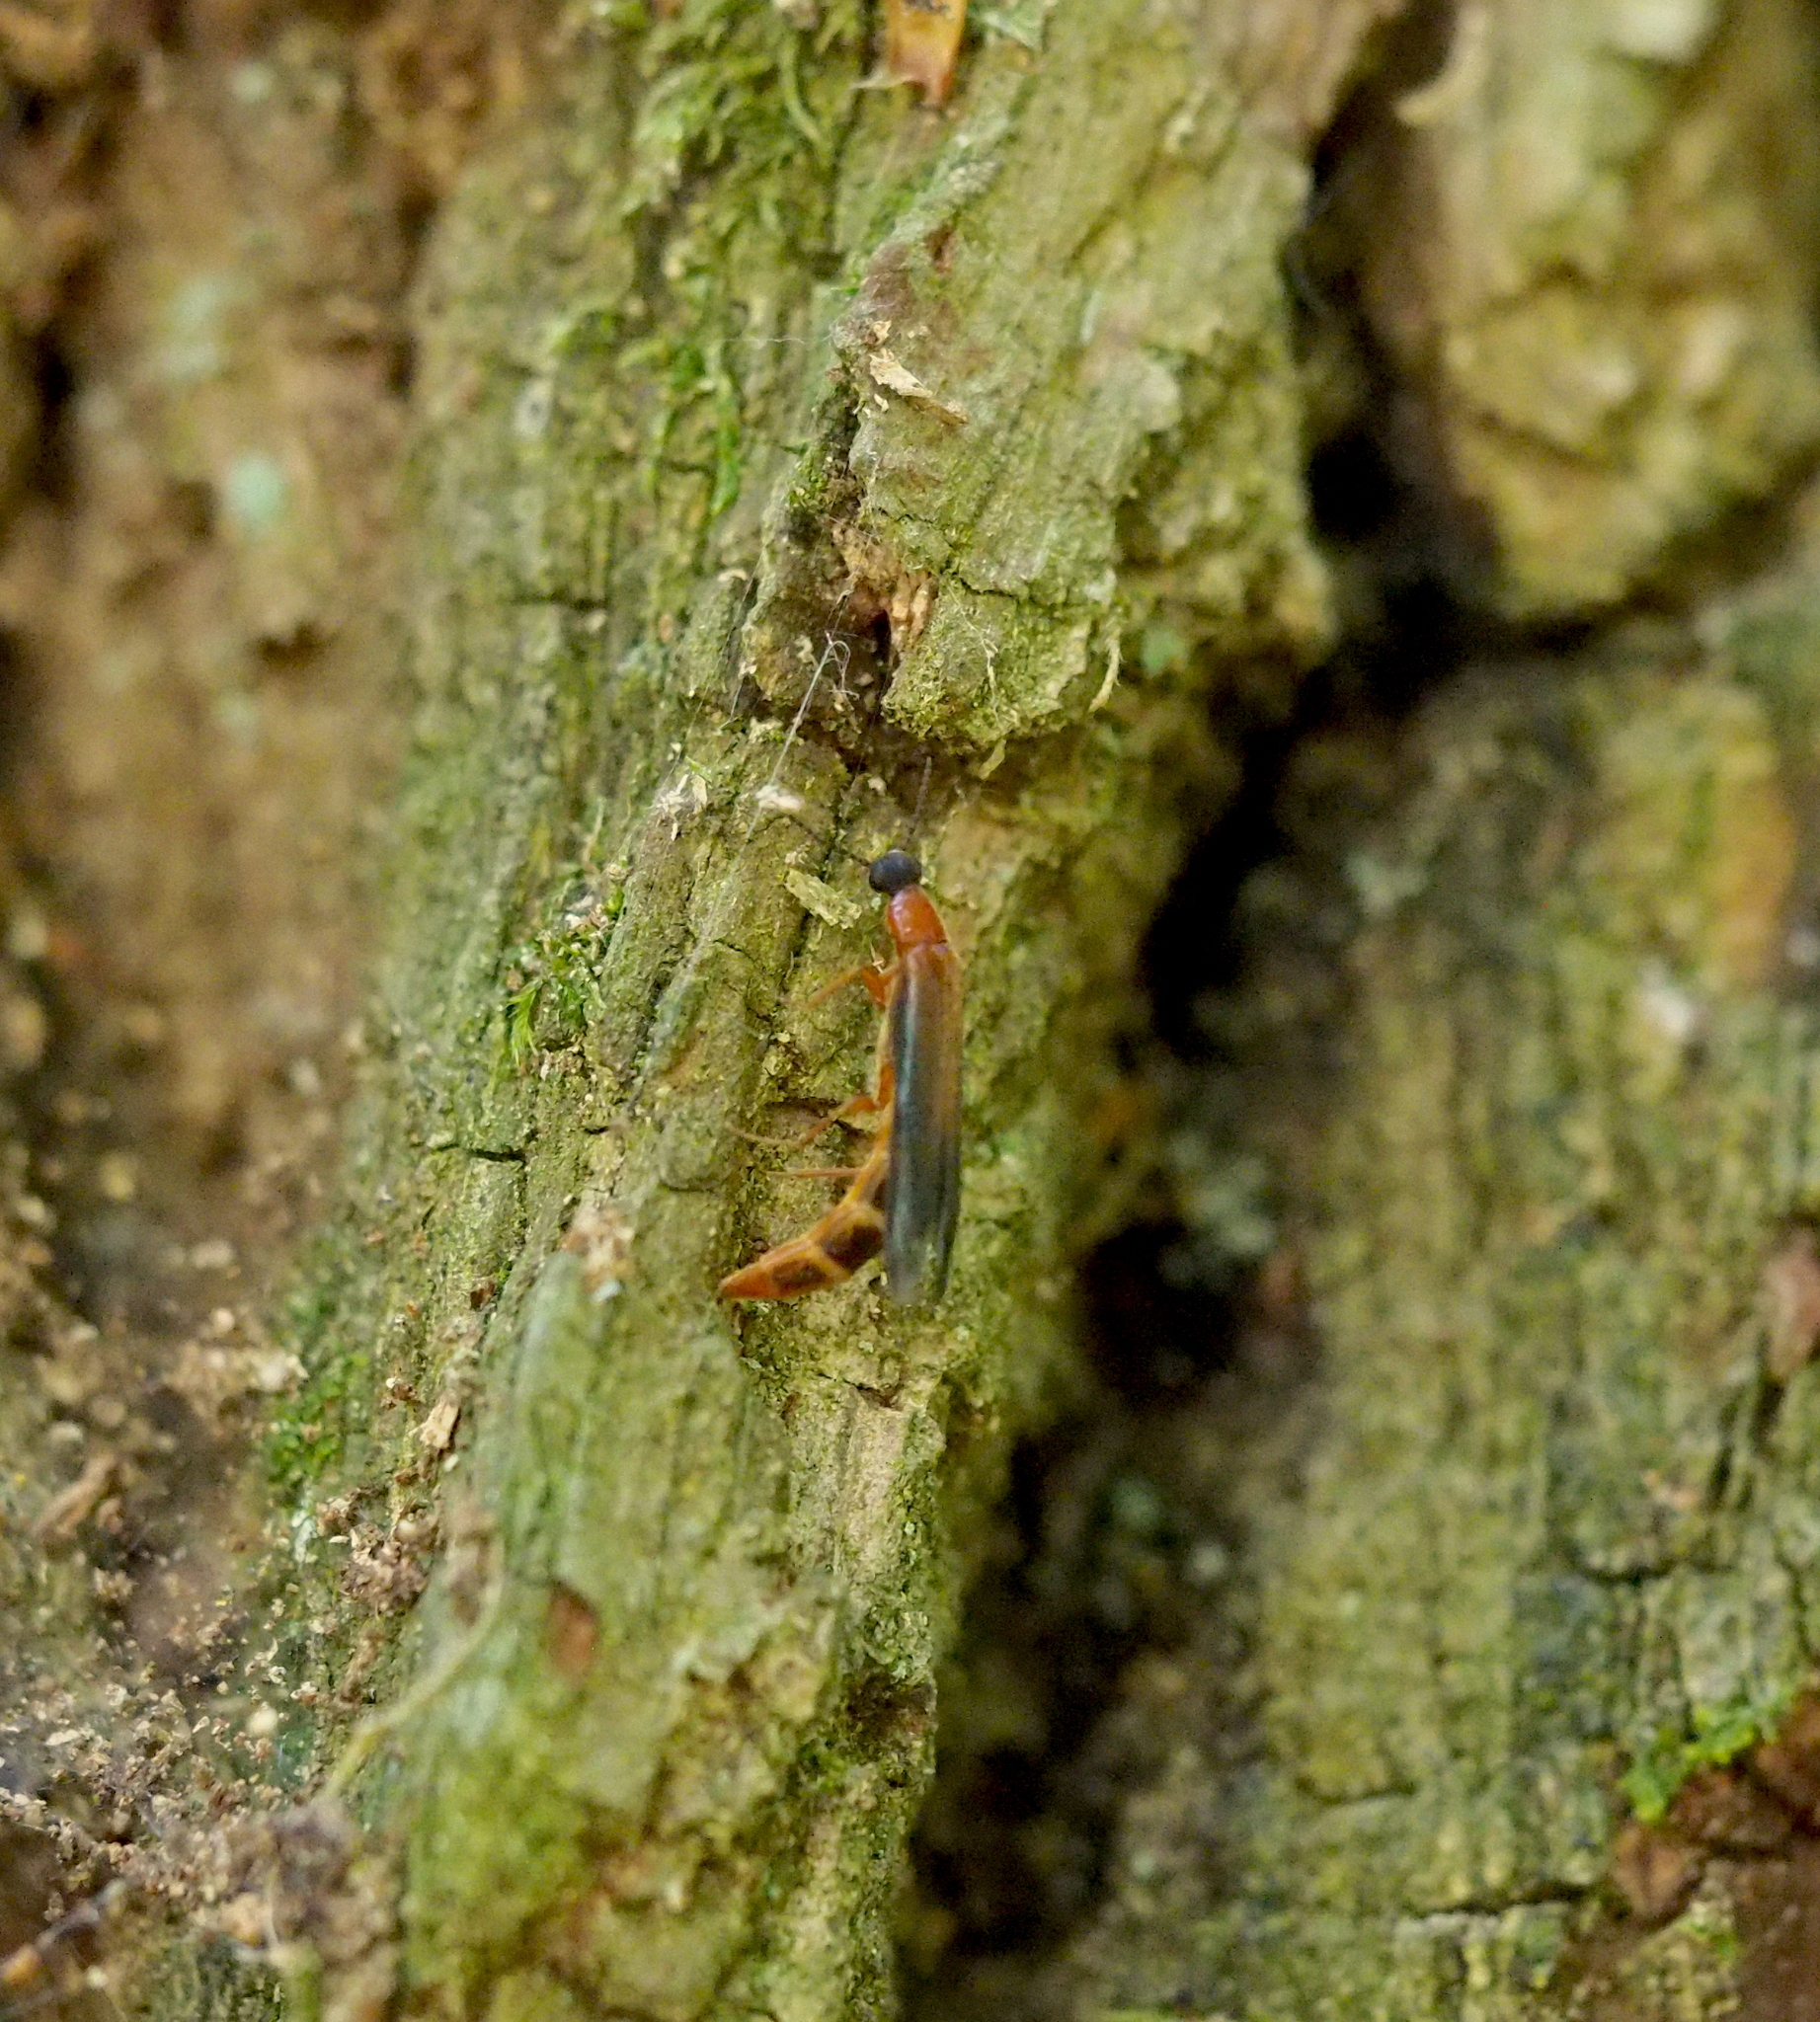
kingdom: Animalia
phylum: Arthropoda
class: Insecta
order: Coleoptera
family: Lymexylidae
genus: Lymexylon
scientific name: Lymexylon navale
